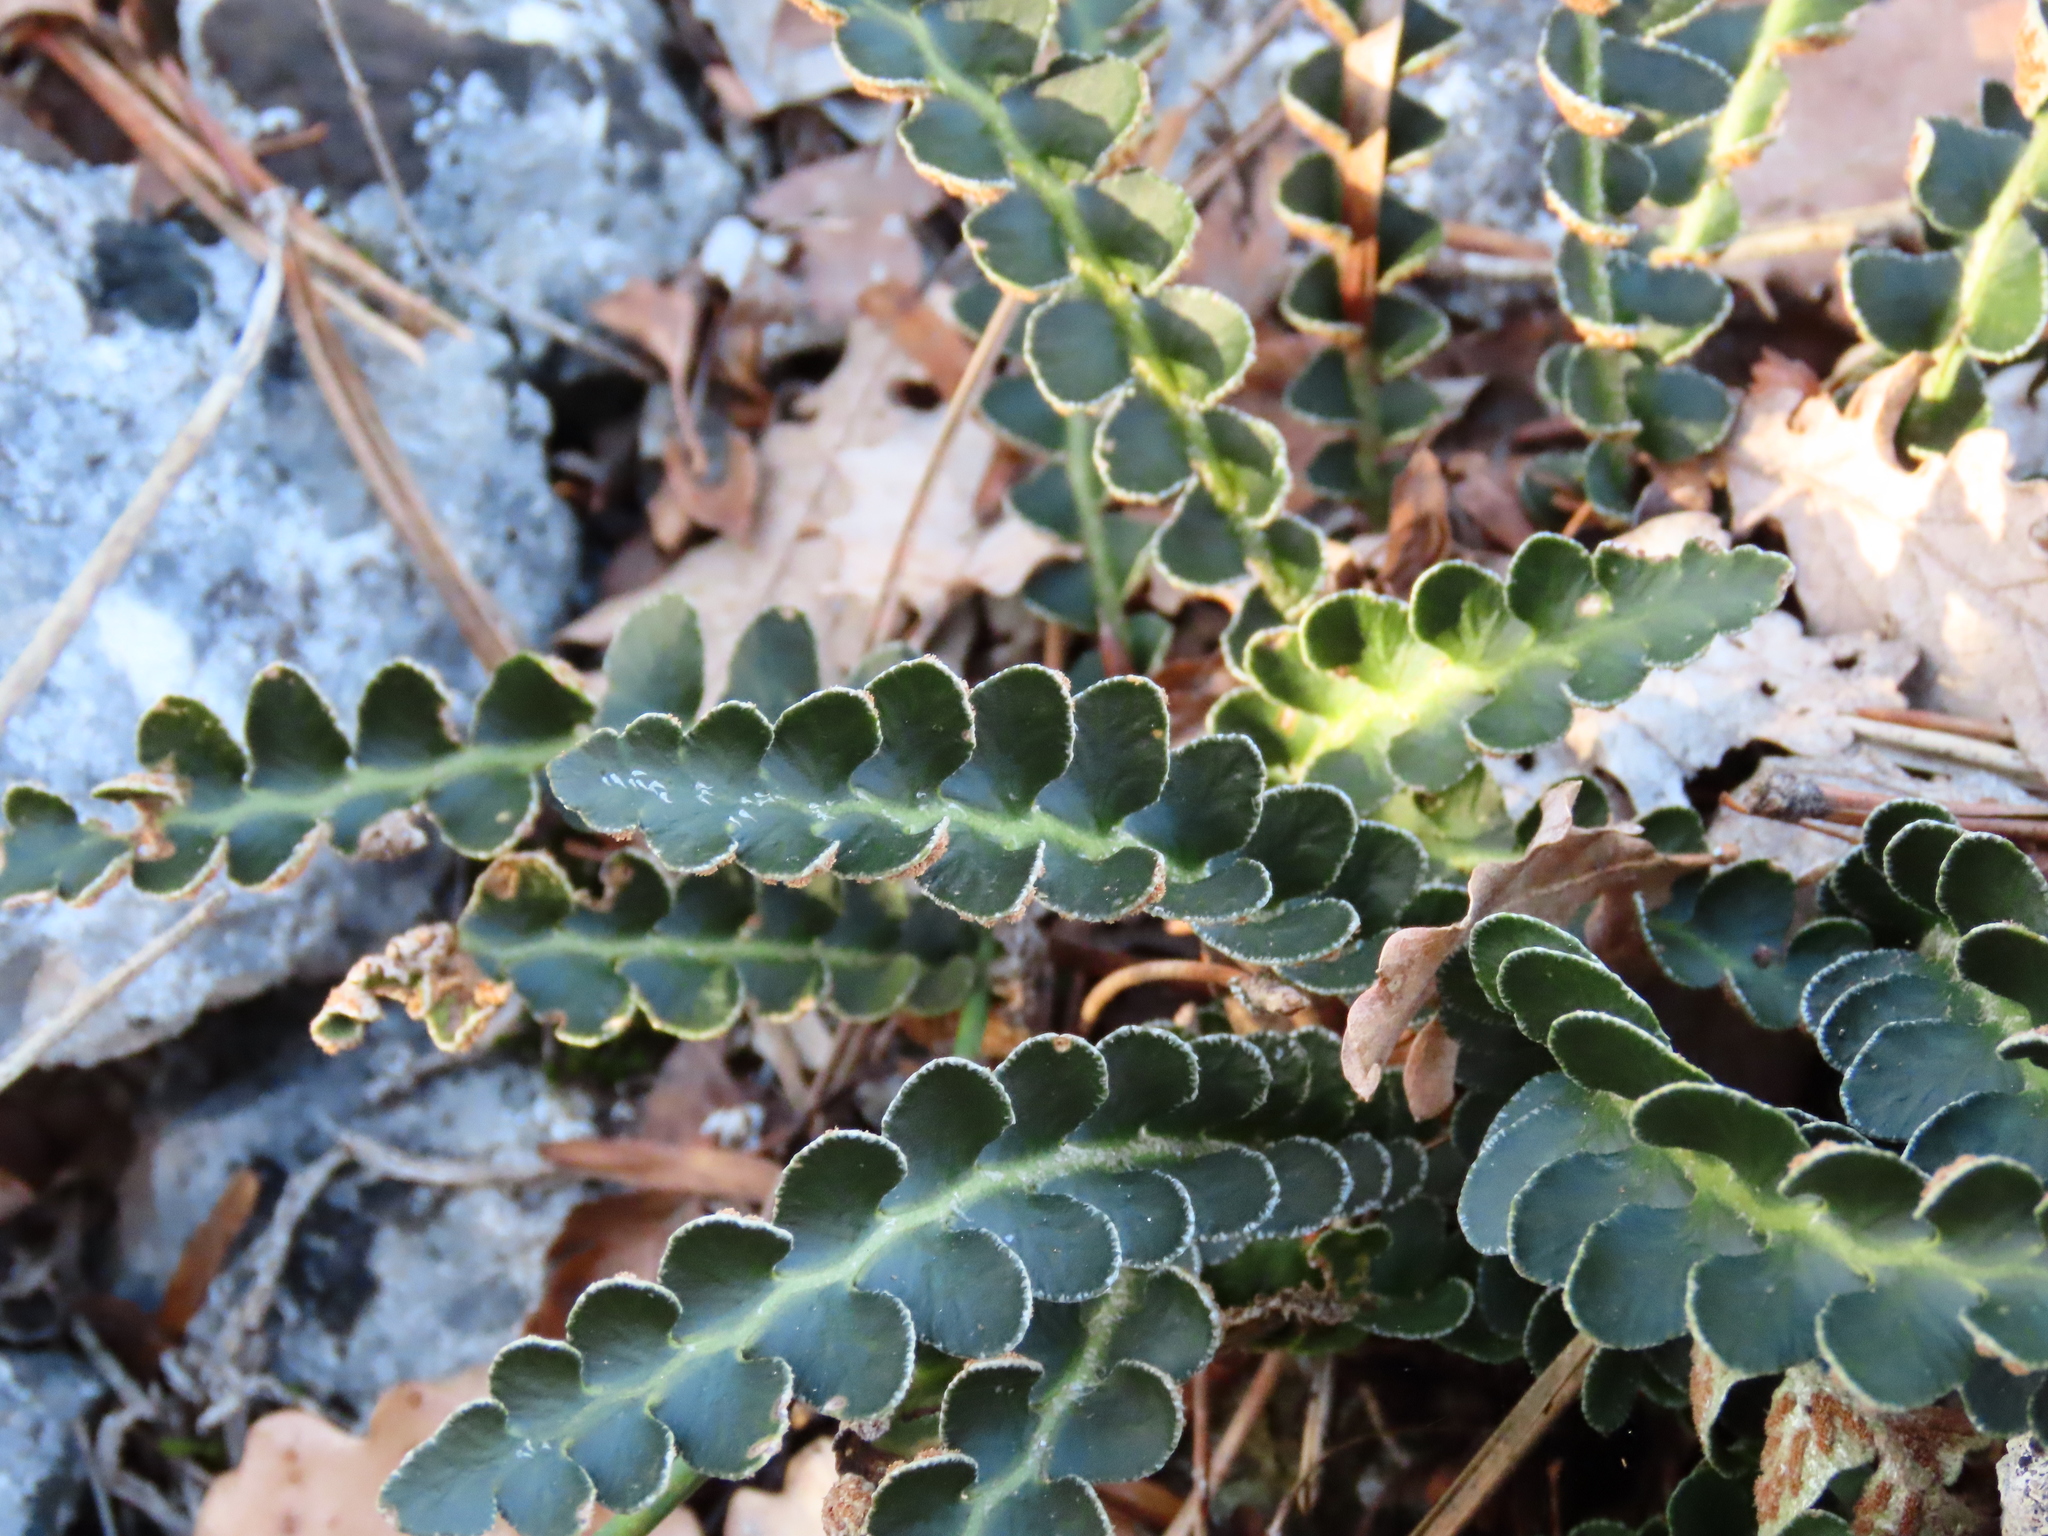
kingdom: Plantae
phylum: Tracheophyta
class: Polypodiopsida
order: Polypodiales
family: Aspleniaceae
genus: Asplenium
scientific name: Asplenium ceterach
